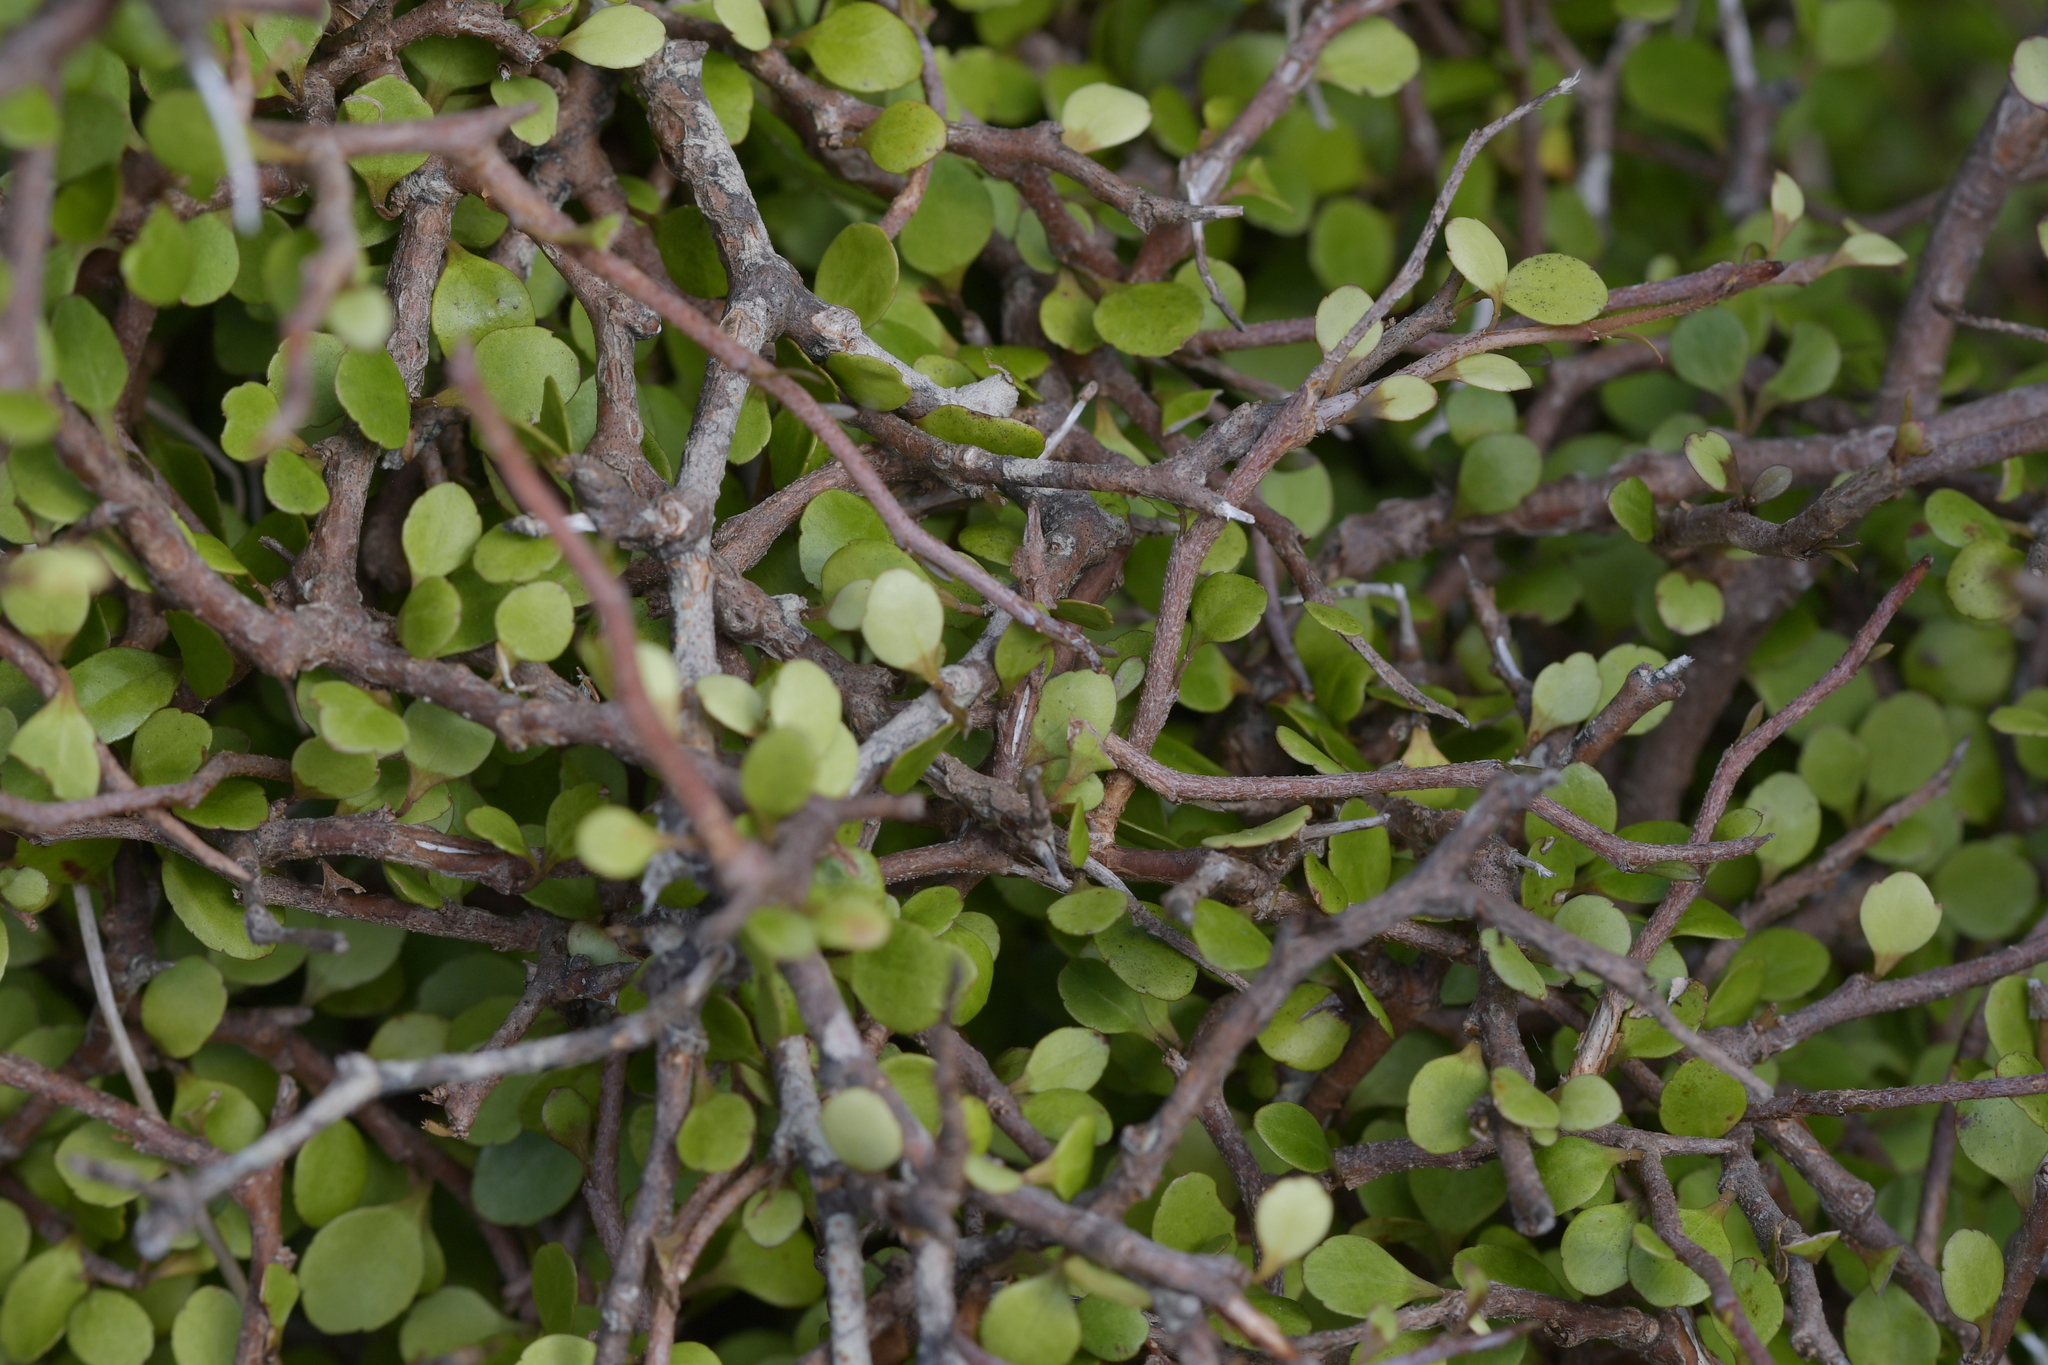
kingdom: Plantae
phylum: Tracheophyta
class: Magnoliopsida
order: Apiales
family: Araliaceae
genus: Raukaua
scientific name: Raukaua anomalus
